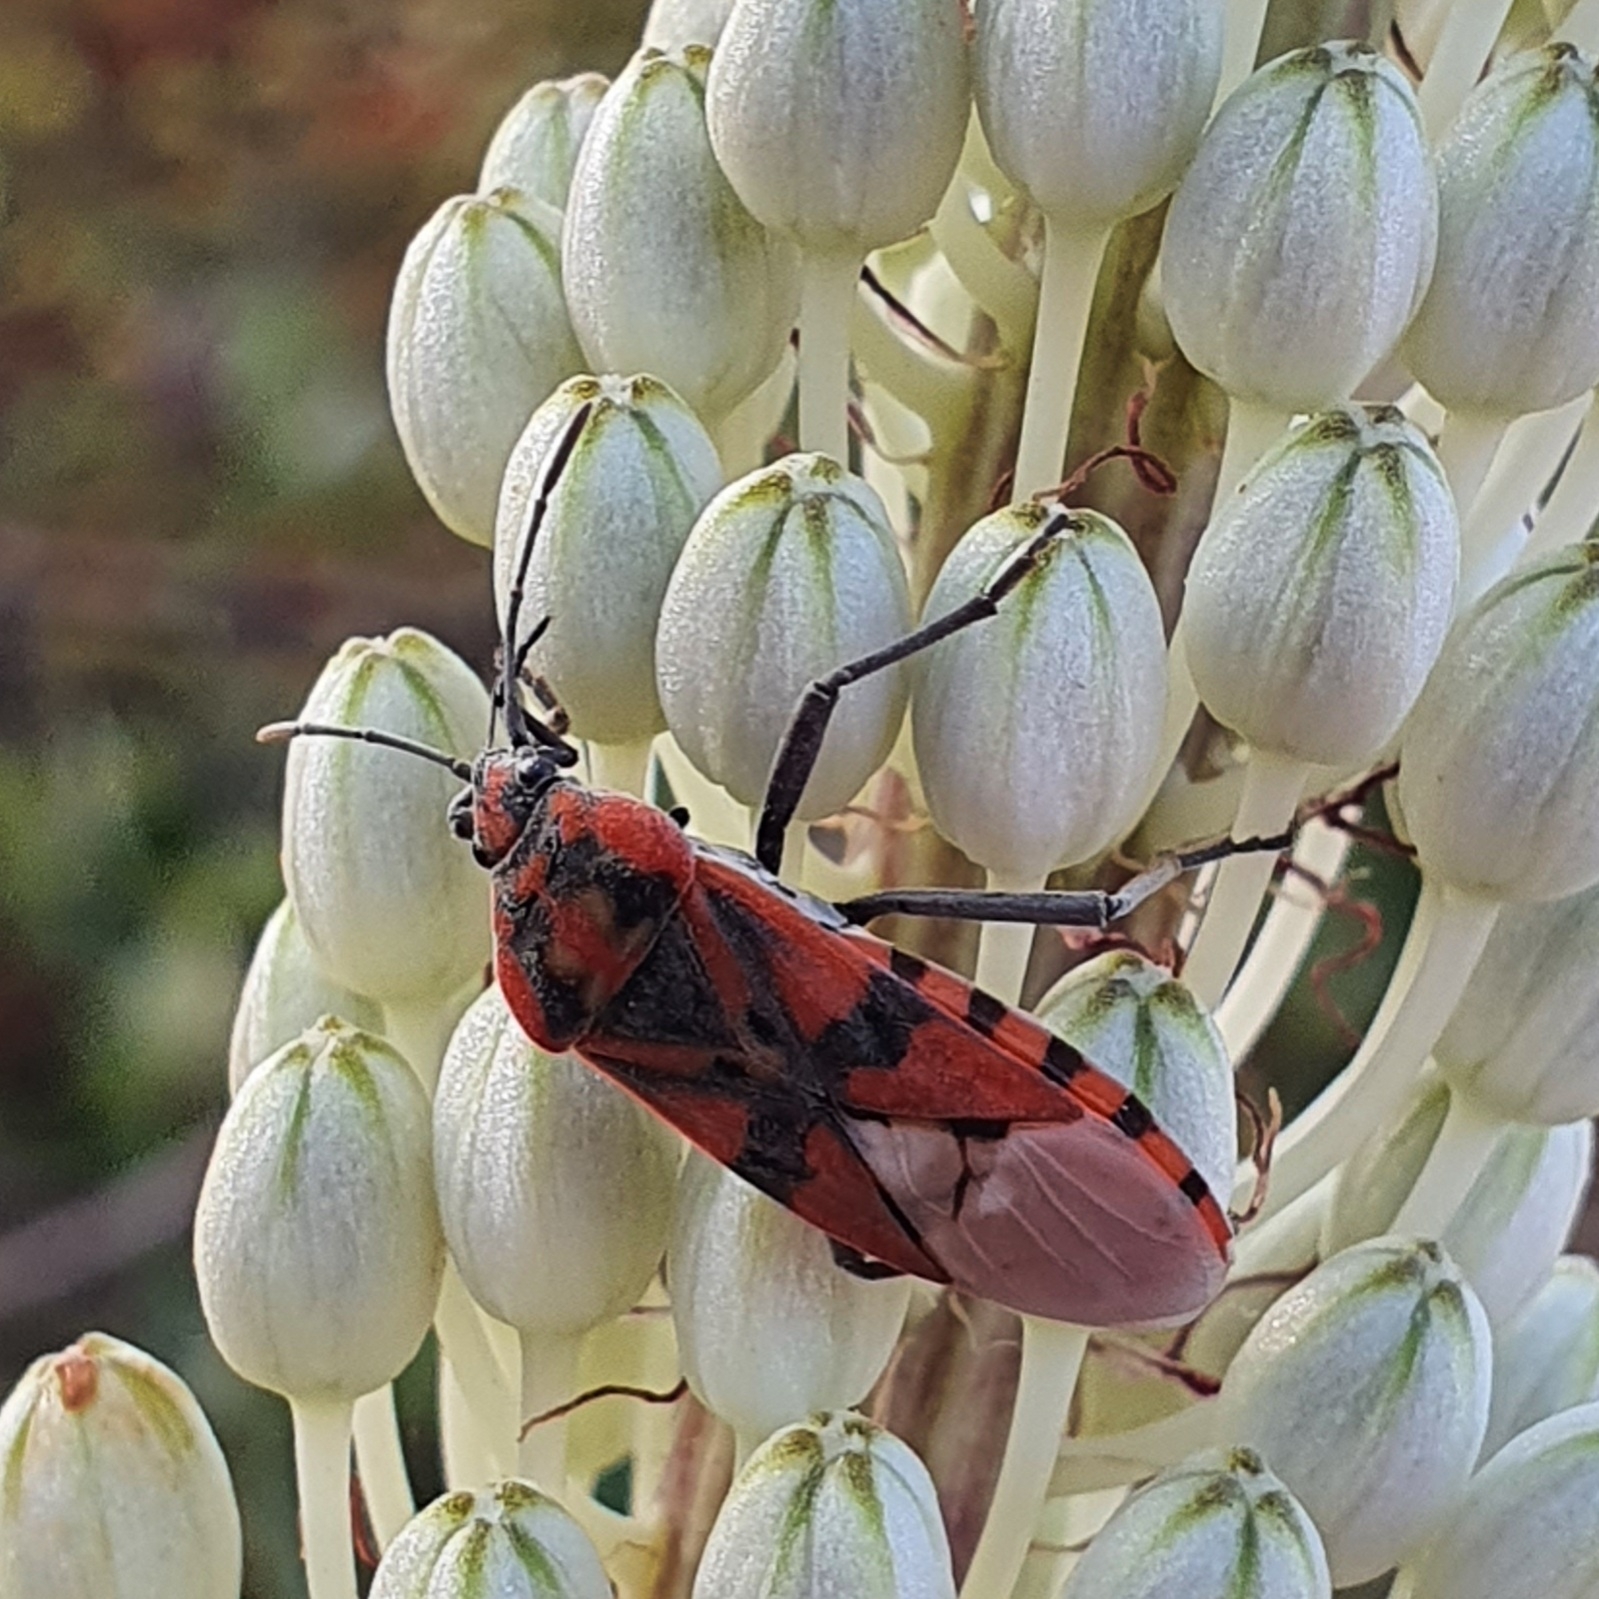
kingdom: Animalia
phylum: Arthropoda
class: Insecta
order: Hemiptera
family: Lygaeidae
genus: Spilostethus
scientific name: Spilostethus pandurus
